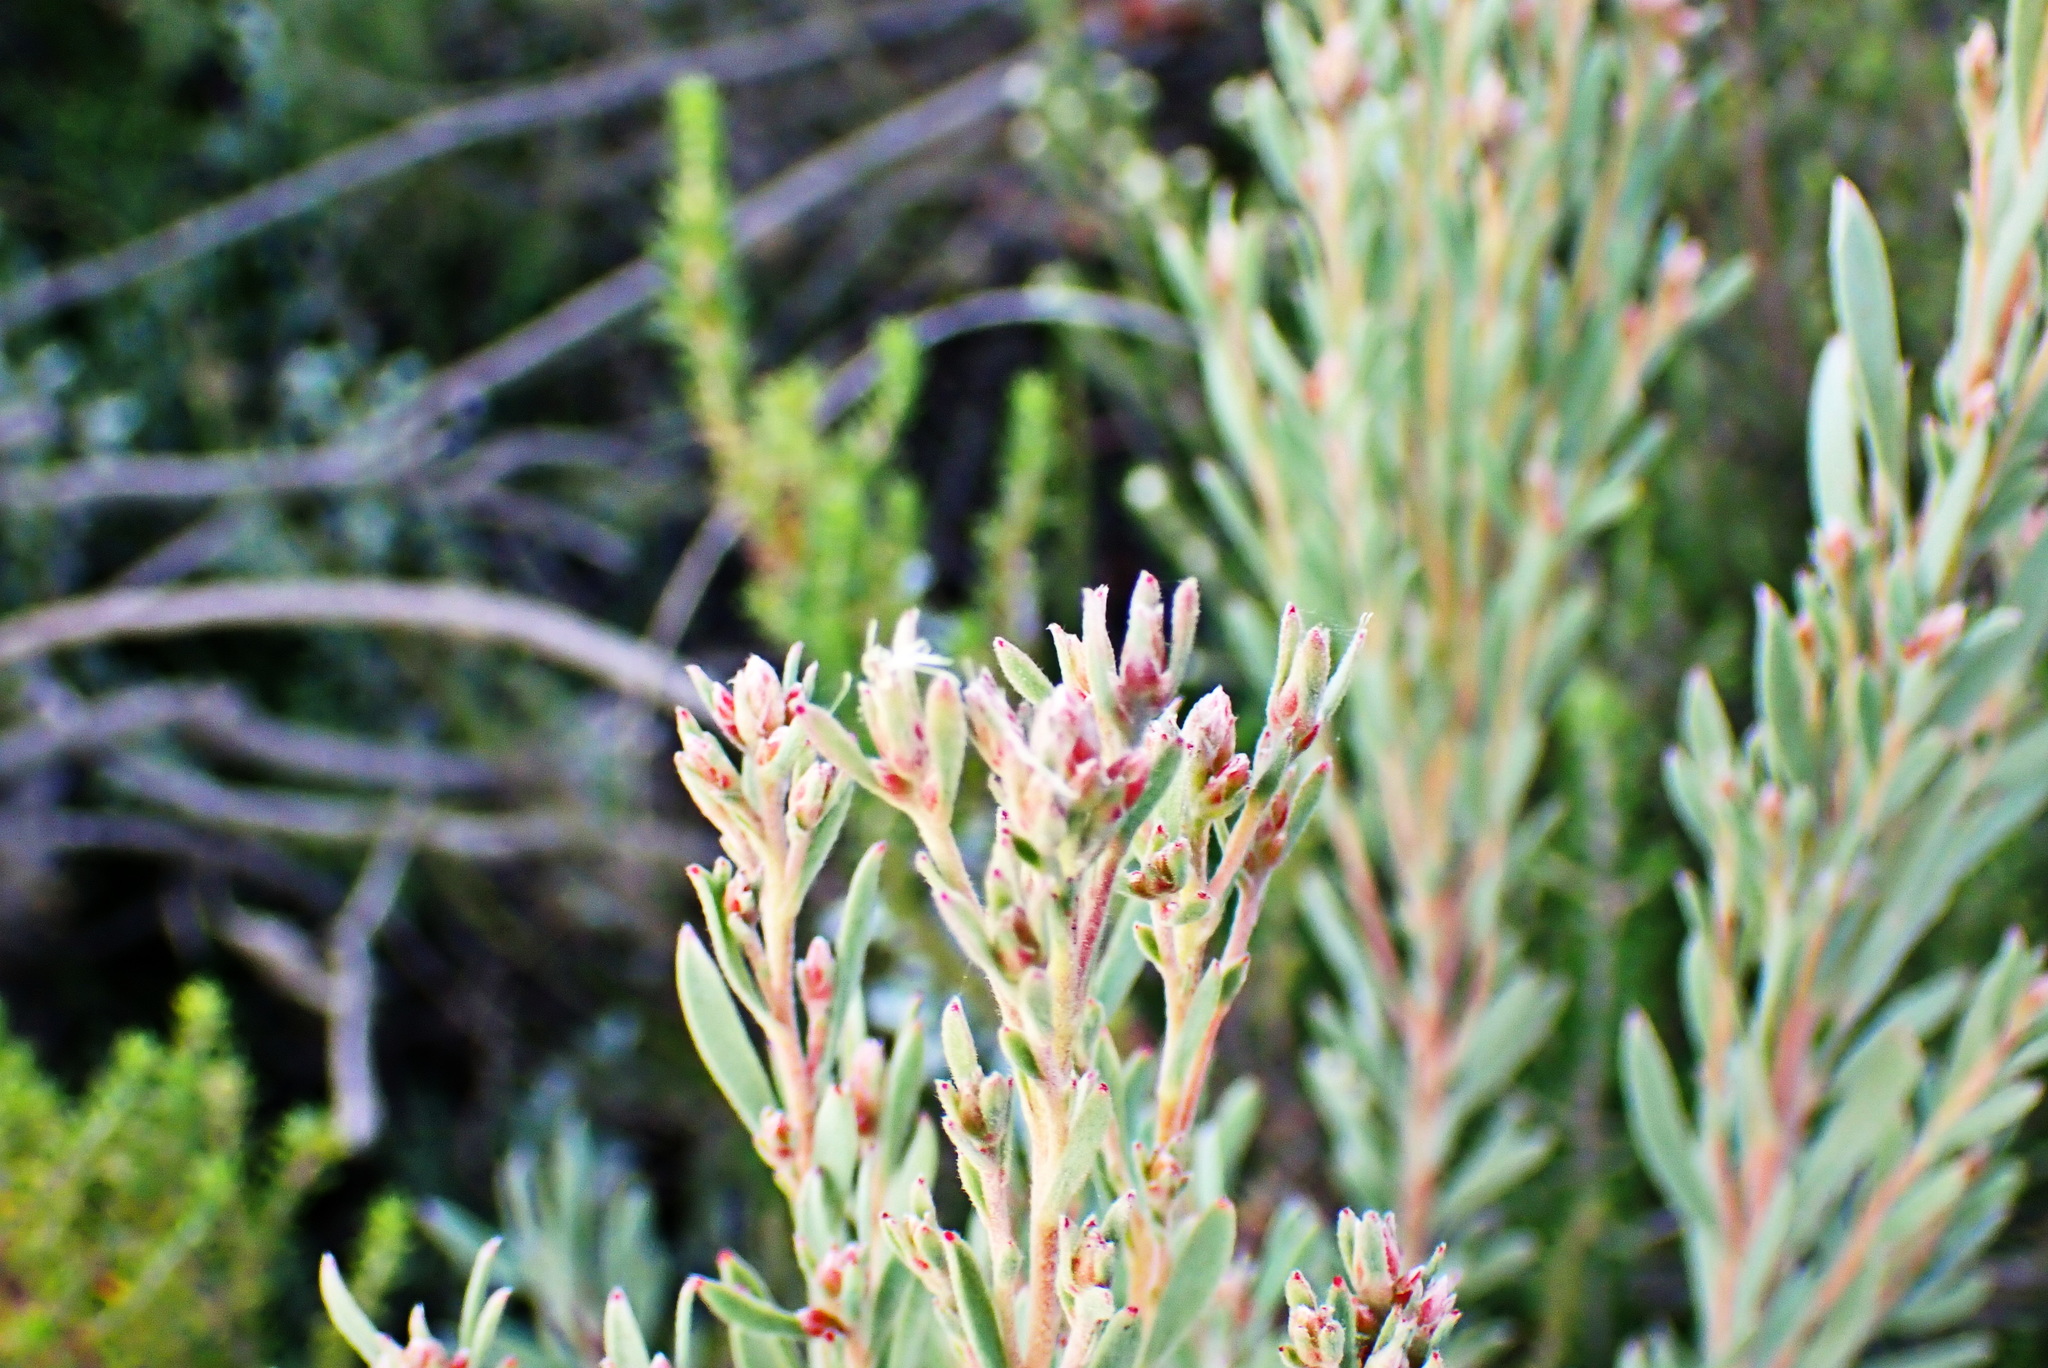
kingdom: Plantae
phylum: Tracheophyta
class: Magnoliopsida
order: Proteales
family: Proteaceae
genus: Leucadendron
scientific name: Leucadendron rubrum
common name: Spinning top
